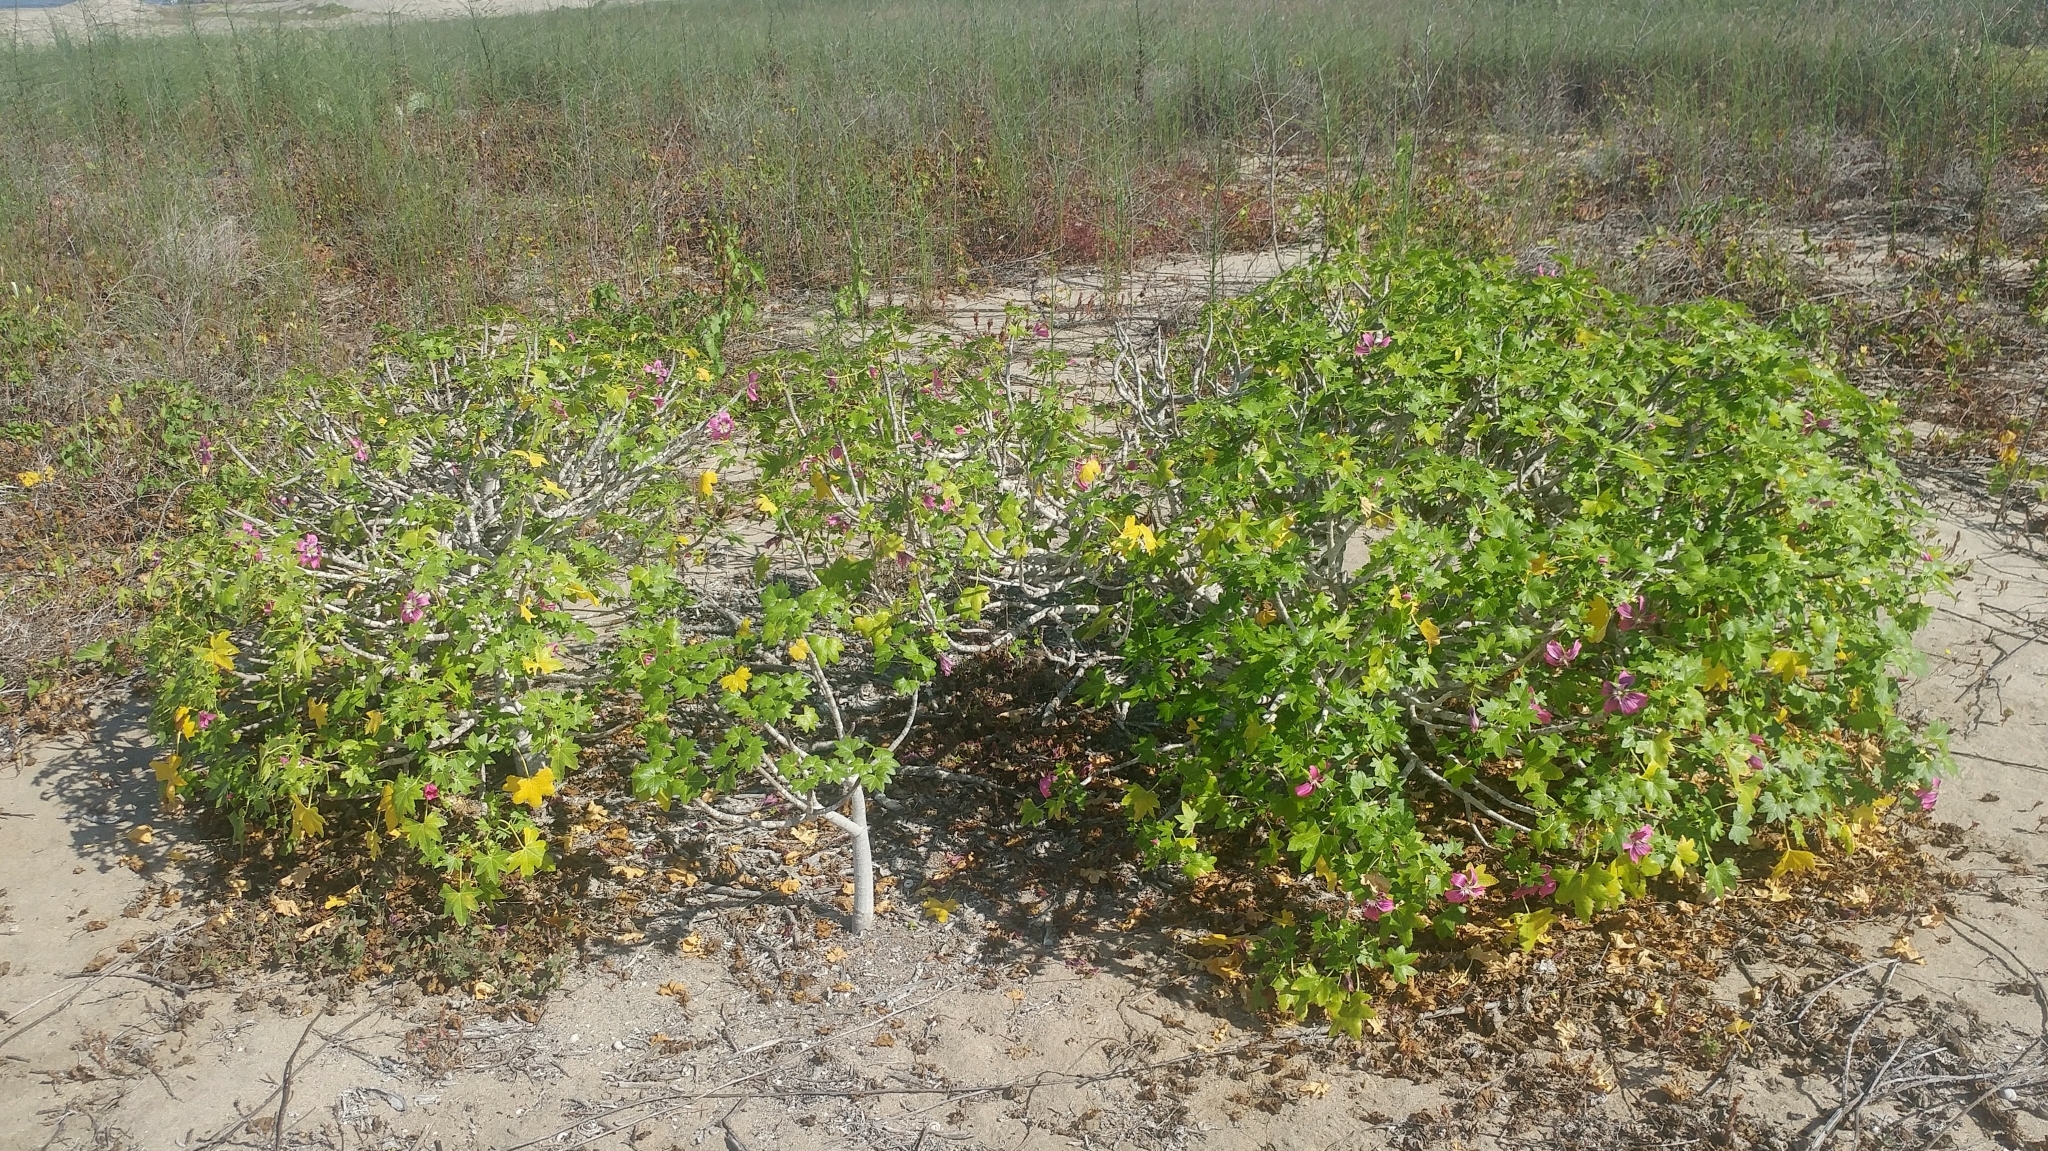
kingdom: Plantae
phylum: Tracheophyta
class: Magnoliopsida
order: Malvales
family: Malvaceae
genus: Malva
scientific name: Malva assurgentiflora
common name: Island mallow
